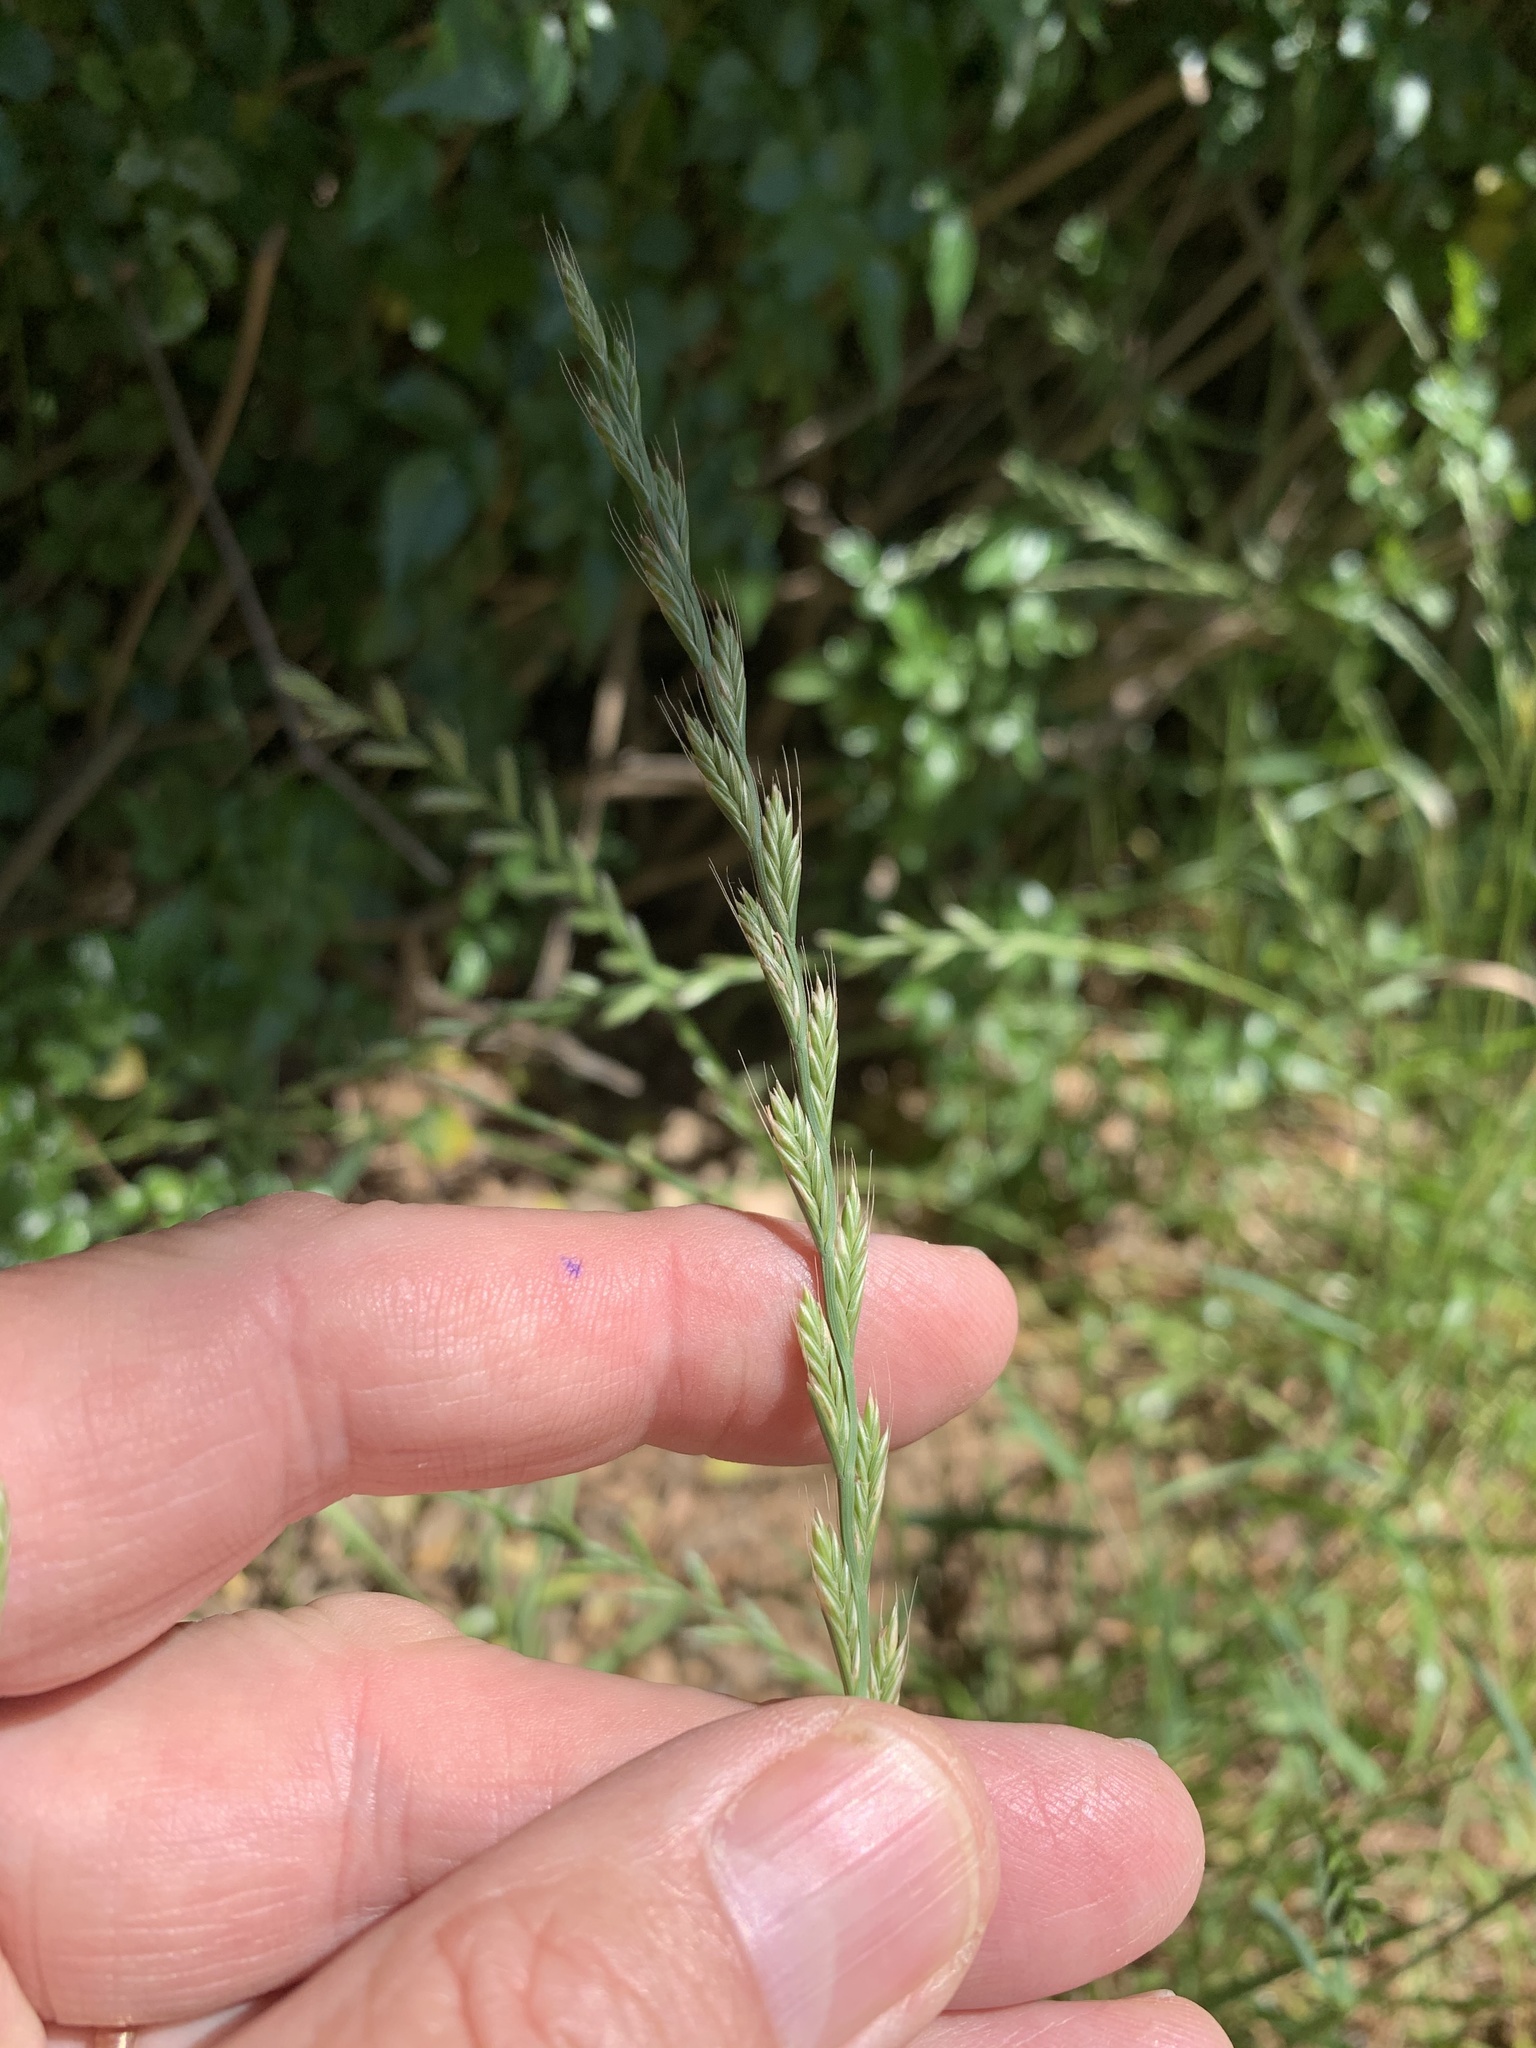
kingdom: Plantae
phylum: Tracheophyta
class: Liliopsida
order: Poales
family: Poaceae
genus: Lolium
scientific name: Lolium multiflorum
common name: Annual ryegrass
